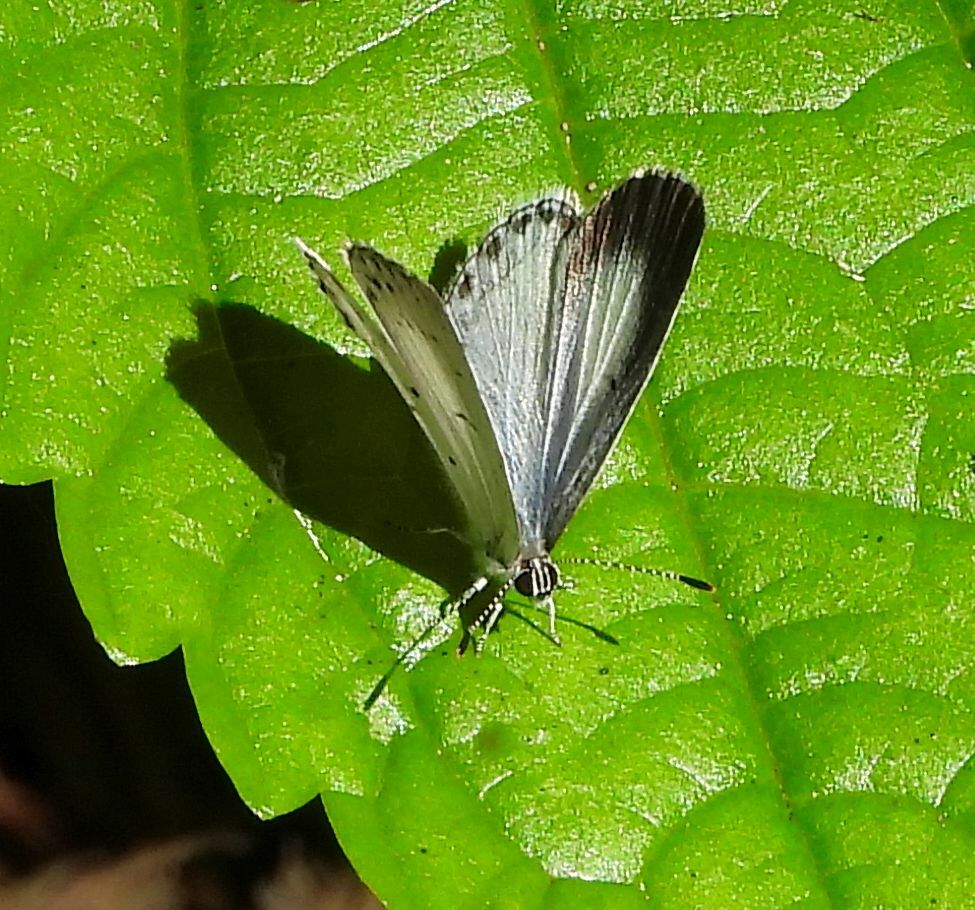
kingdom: Animalia
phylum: Arthropoda
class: Insecta
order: Lepidoptera
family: Lycaenidae
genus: Celastrina
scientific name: Celastrina lucia
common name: Lucia azure
